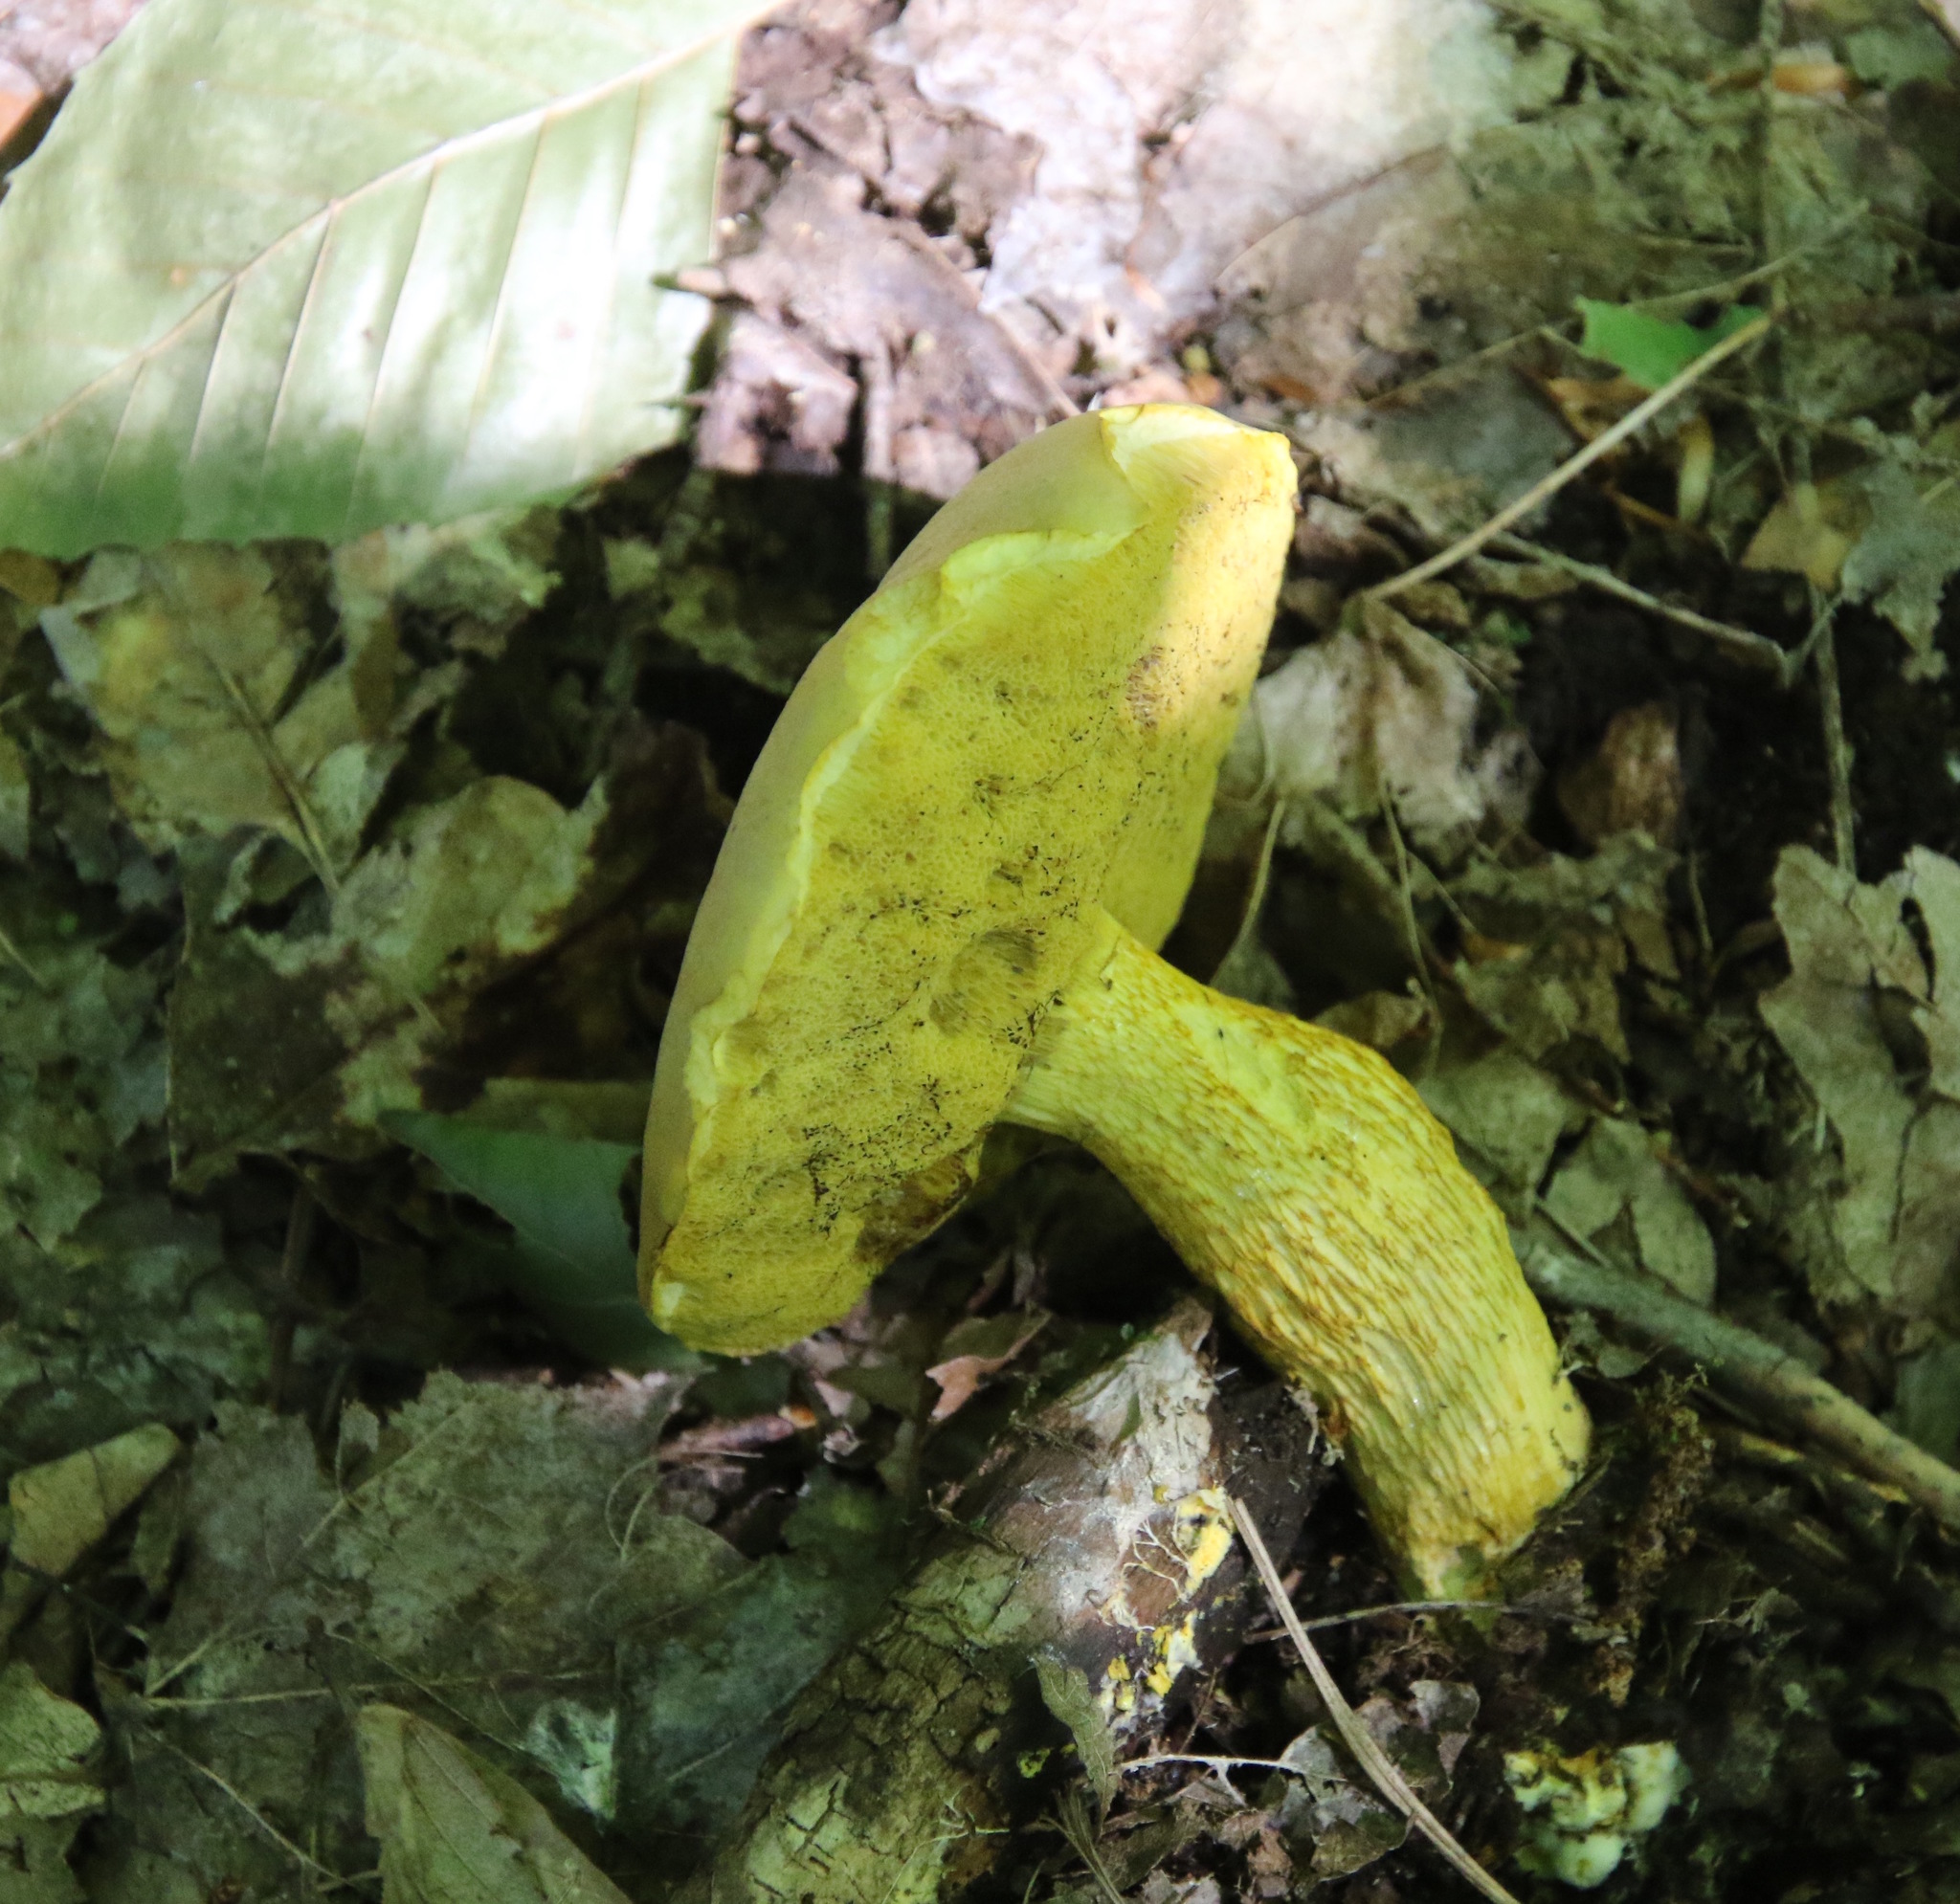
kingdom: Fungi
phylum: Basidiomycota
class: Agaricomycetes
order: Boletales
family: Boletaceae
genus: Retiboletus
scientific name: Retiboletus ornatipes
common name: Ornate-stalked bolete
